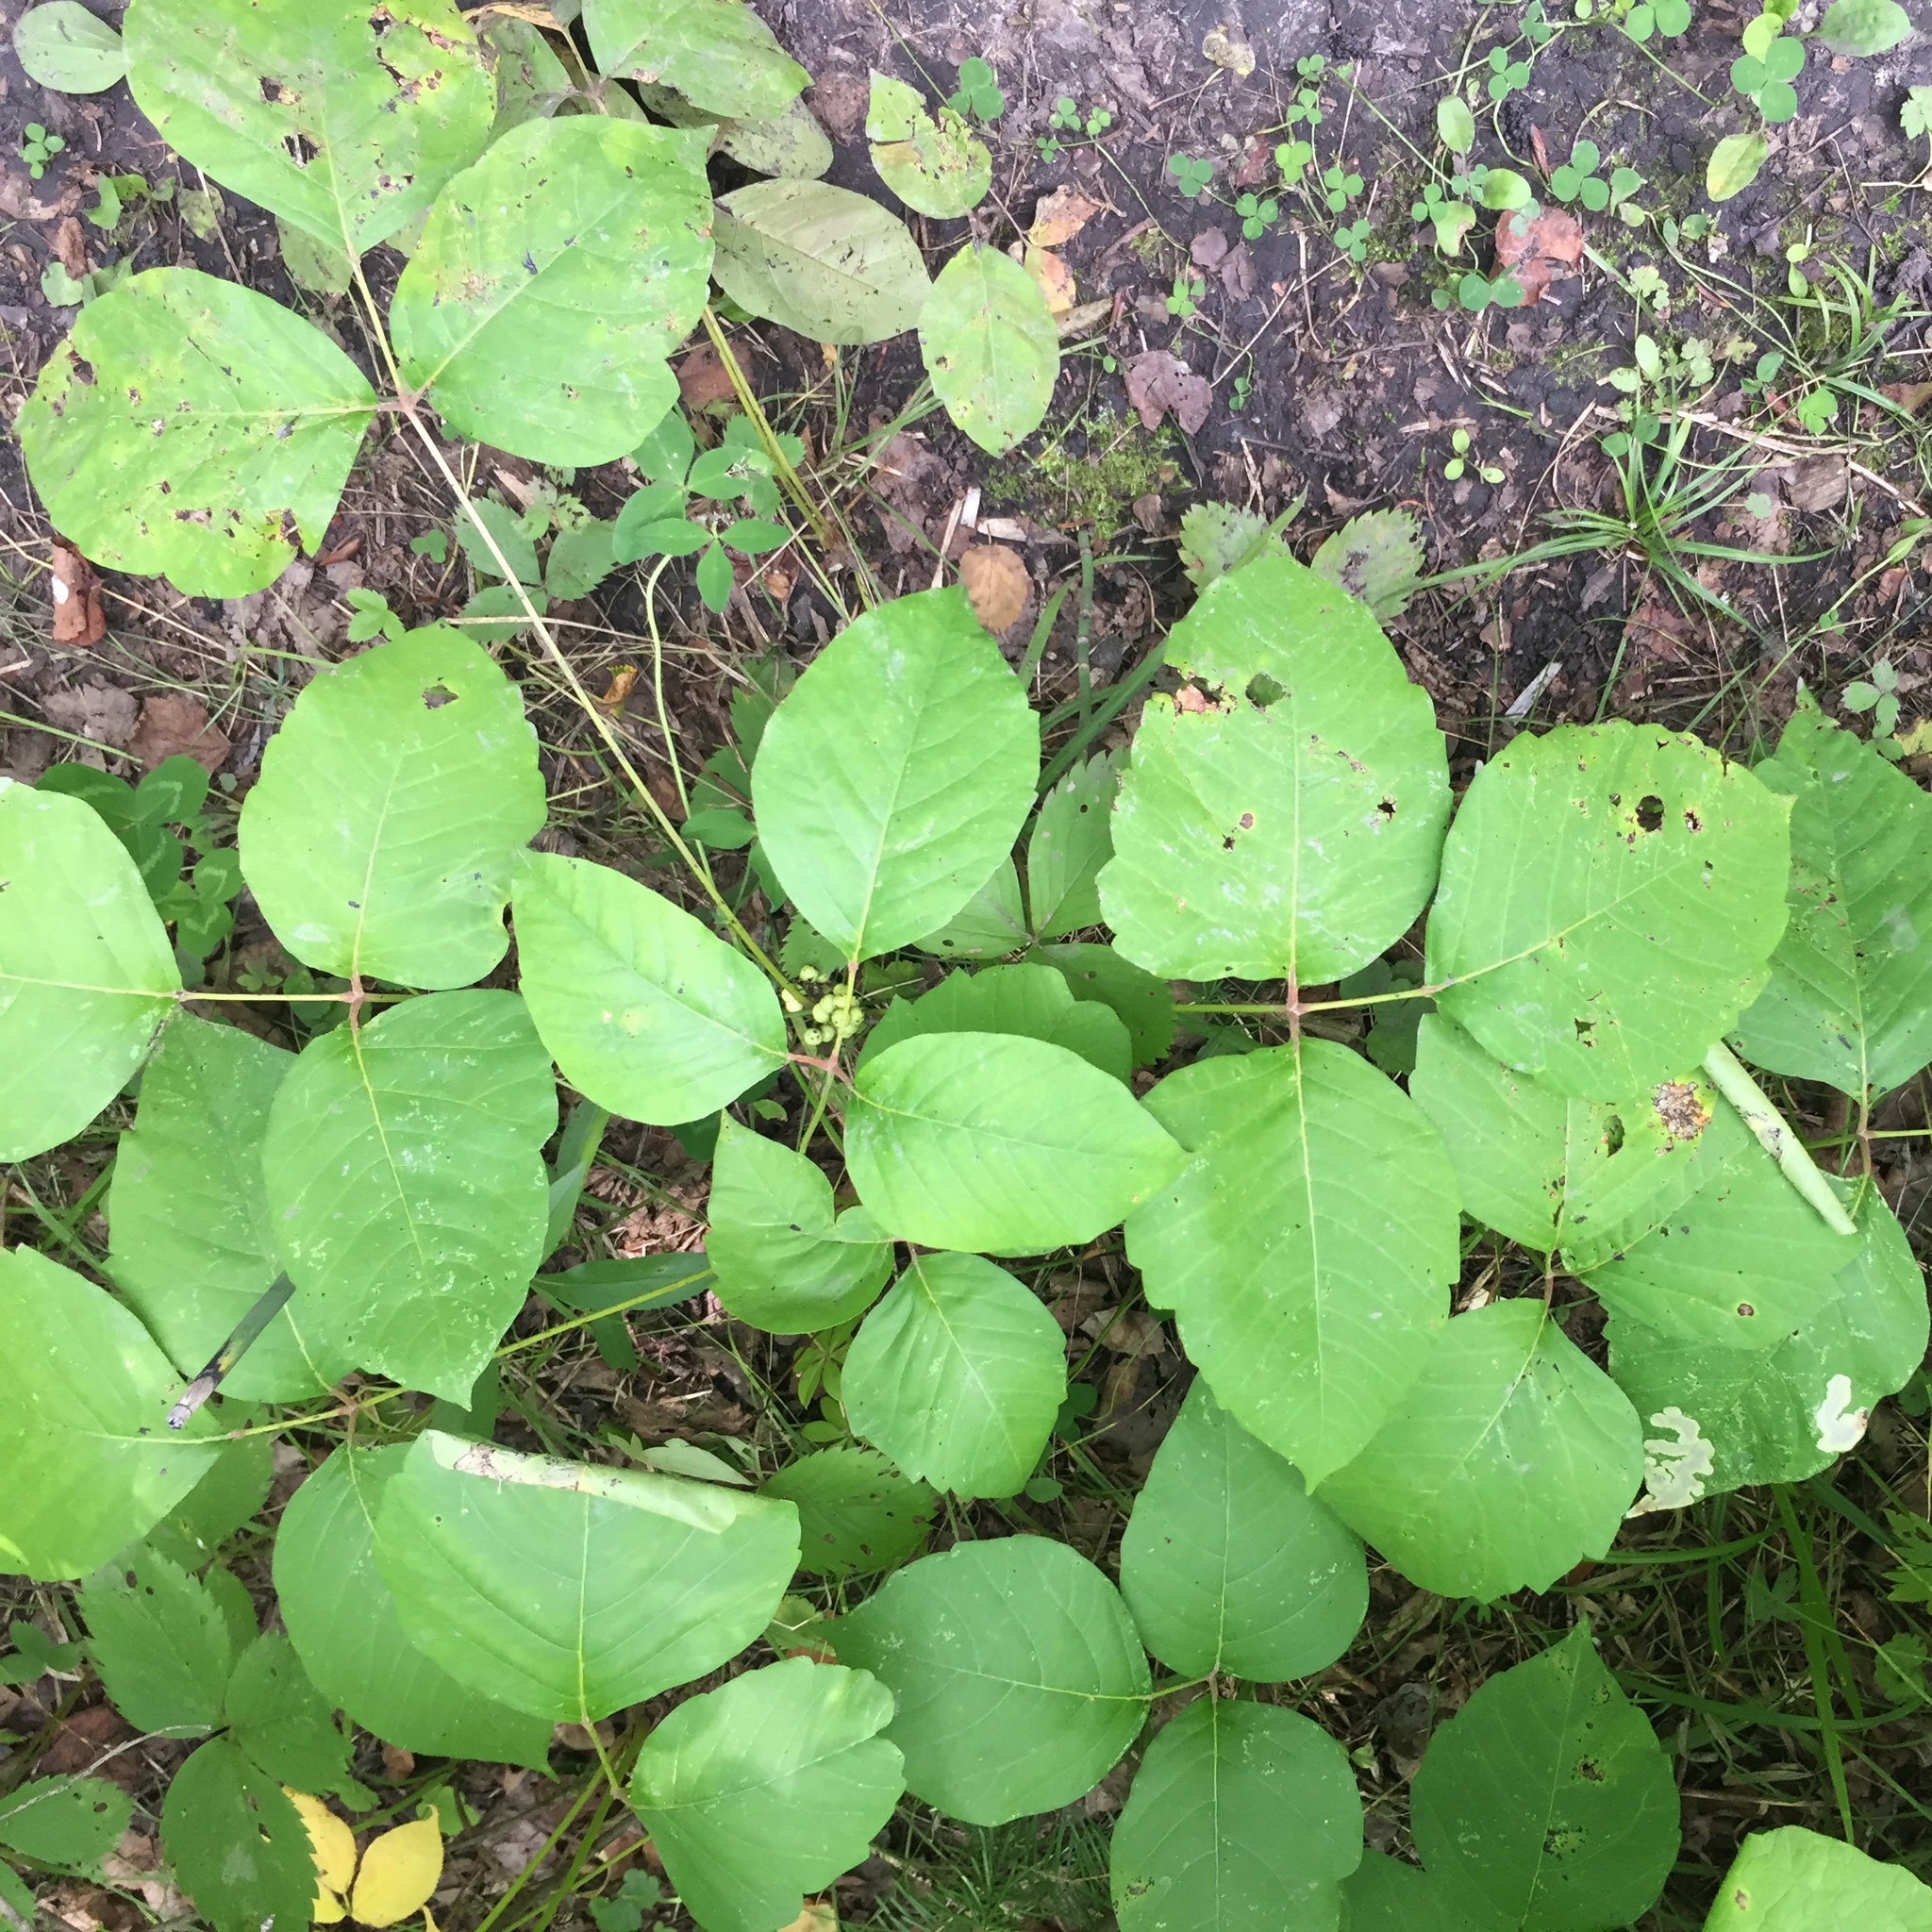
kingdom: Plantae
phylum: Tracheophyta
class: Magnoliopsida
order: Sapindales
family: Anacardiaceae
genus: Toxicodendron
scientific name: Toxicodendron rydbergii
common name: Rydberg's poison-ivy
